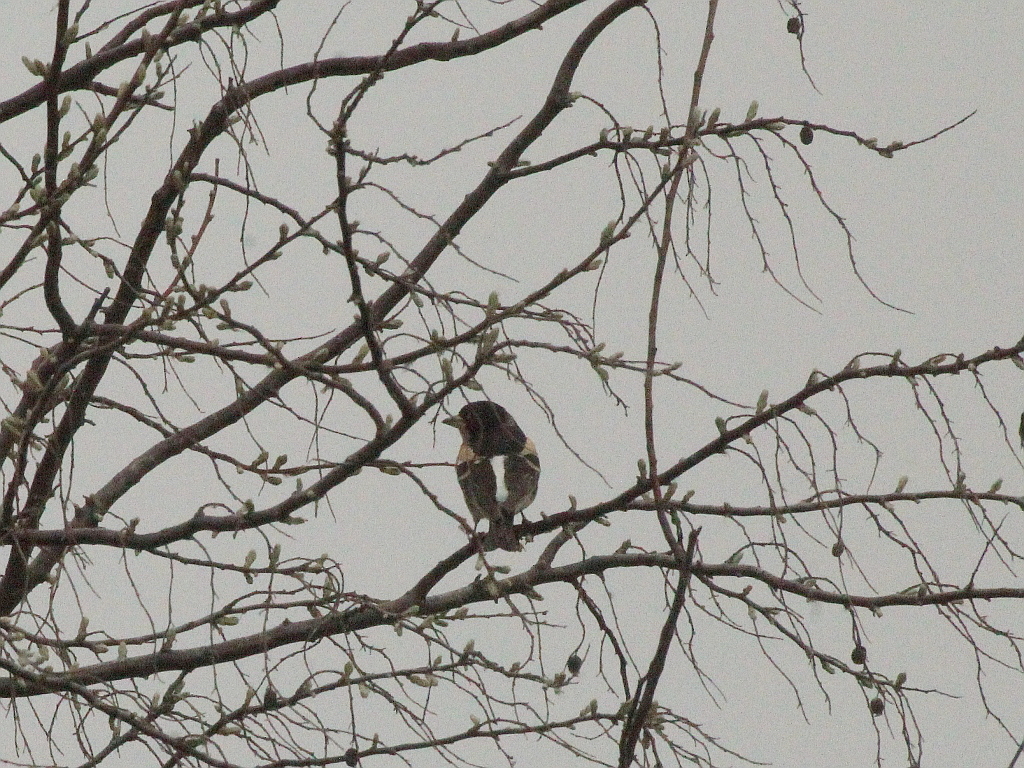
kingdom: Animalia
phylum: Chordata
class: Aves
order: Passeriformes
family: Fringillidae
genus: Fringilla
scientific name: Fringilla montifringilla
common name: Brambling
